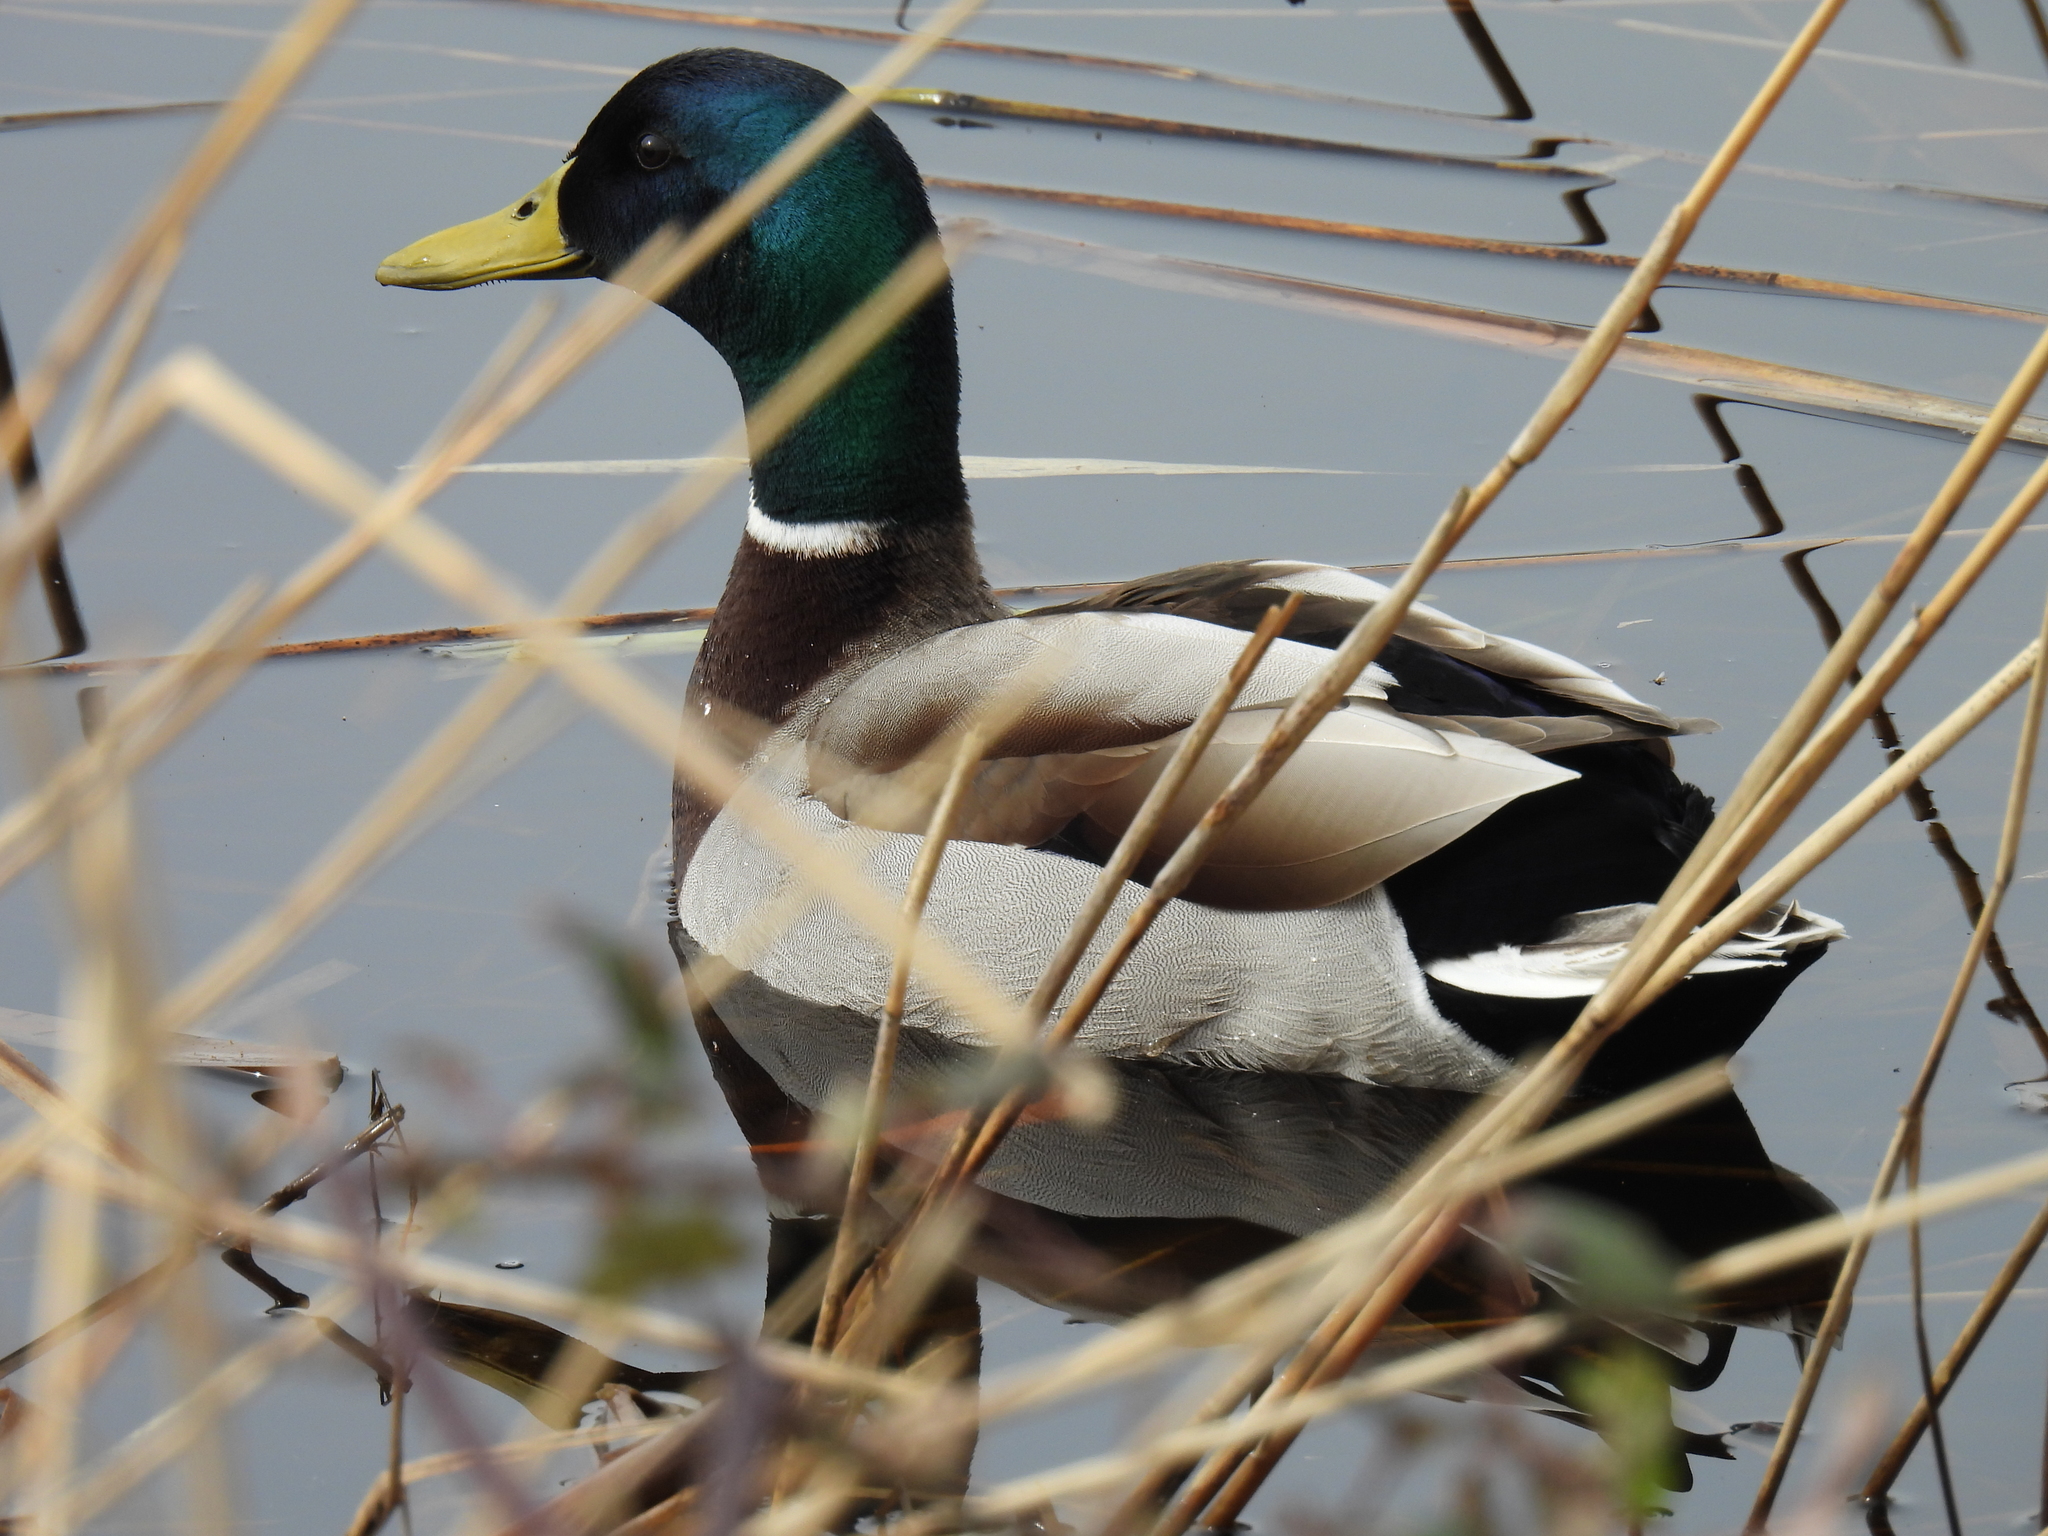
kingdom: Animalia
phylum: Chordata
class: Aves
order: Anseriformes
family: Anatidae
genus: Anas
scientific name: Anas platyrhynchos
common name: Mallard
